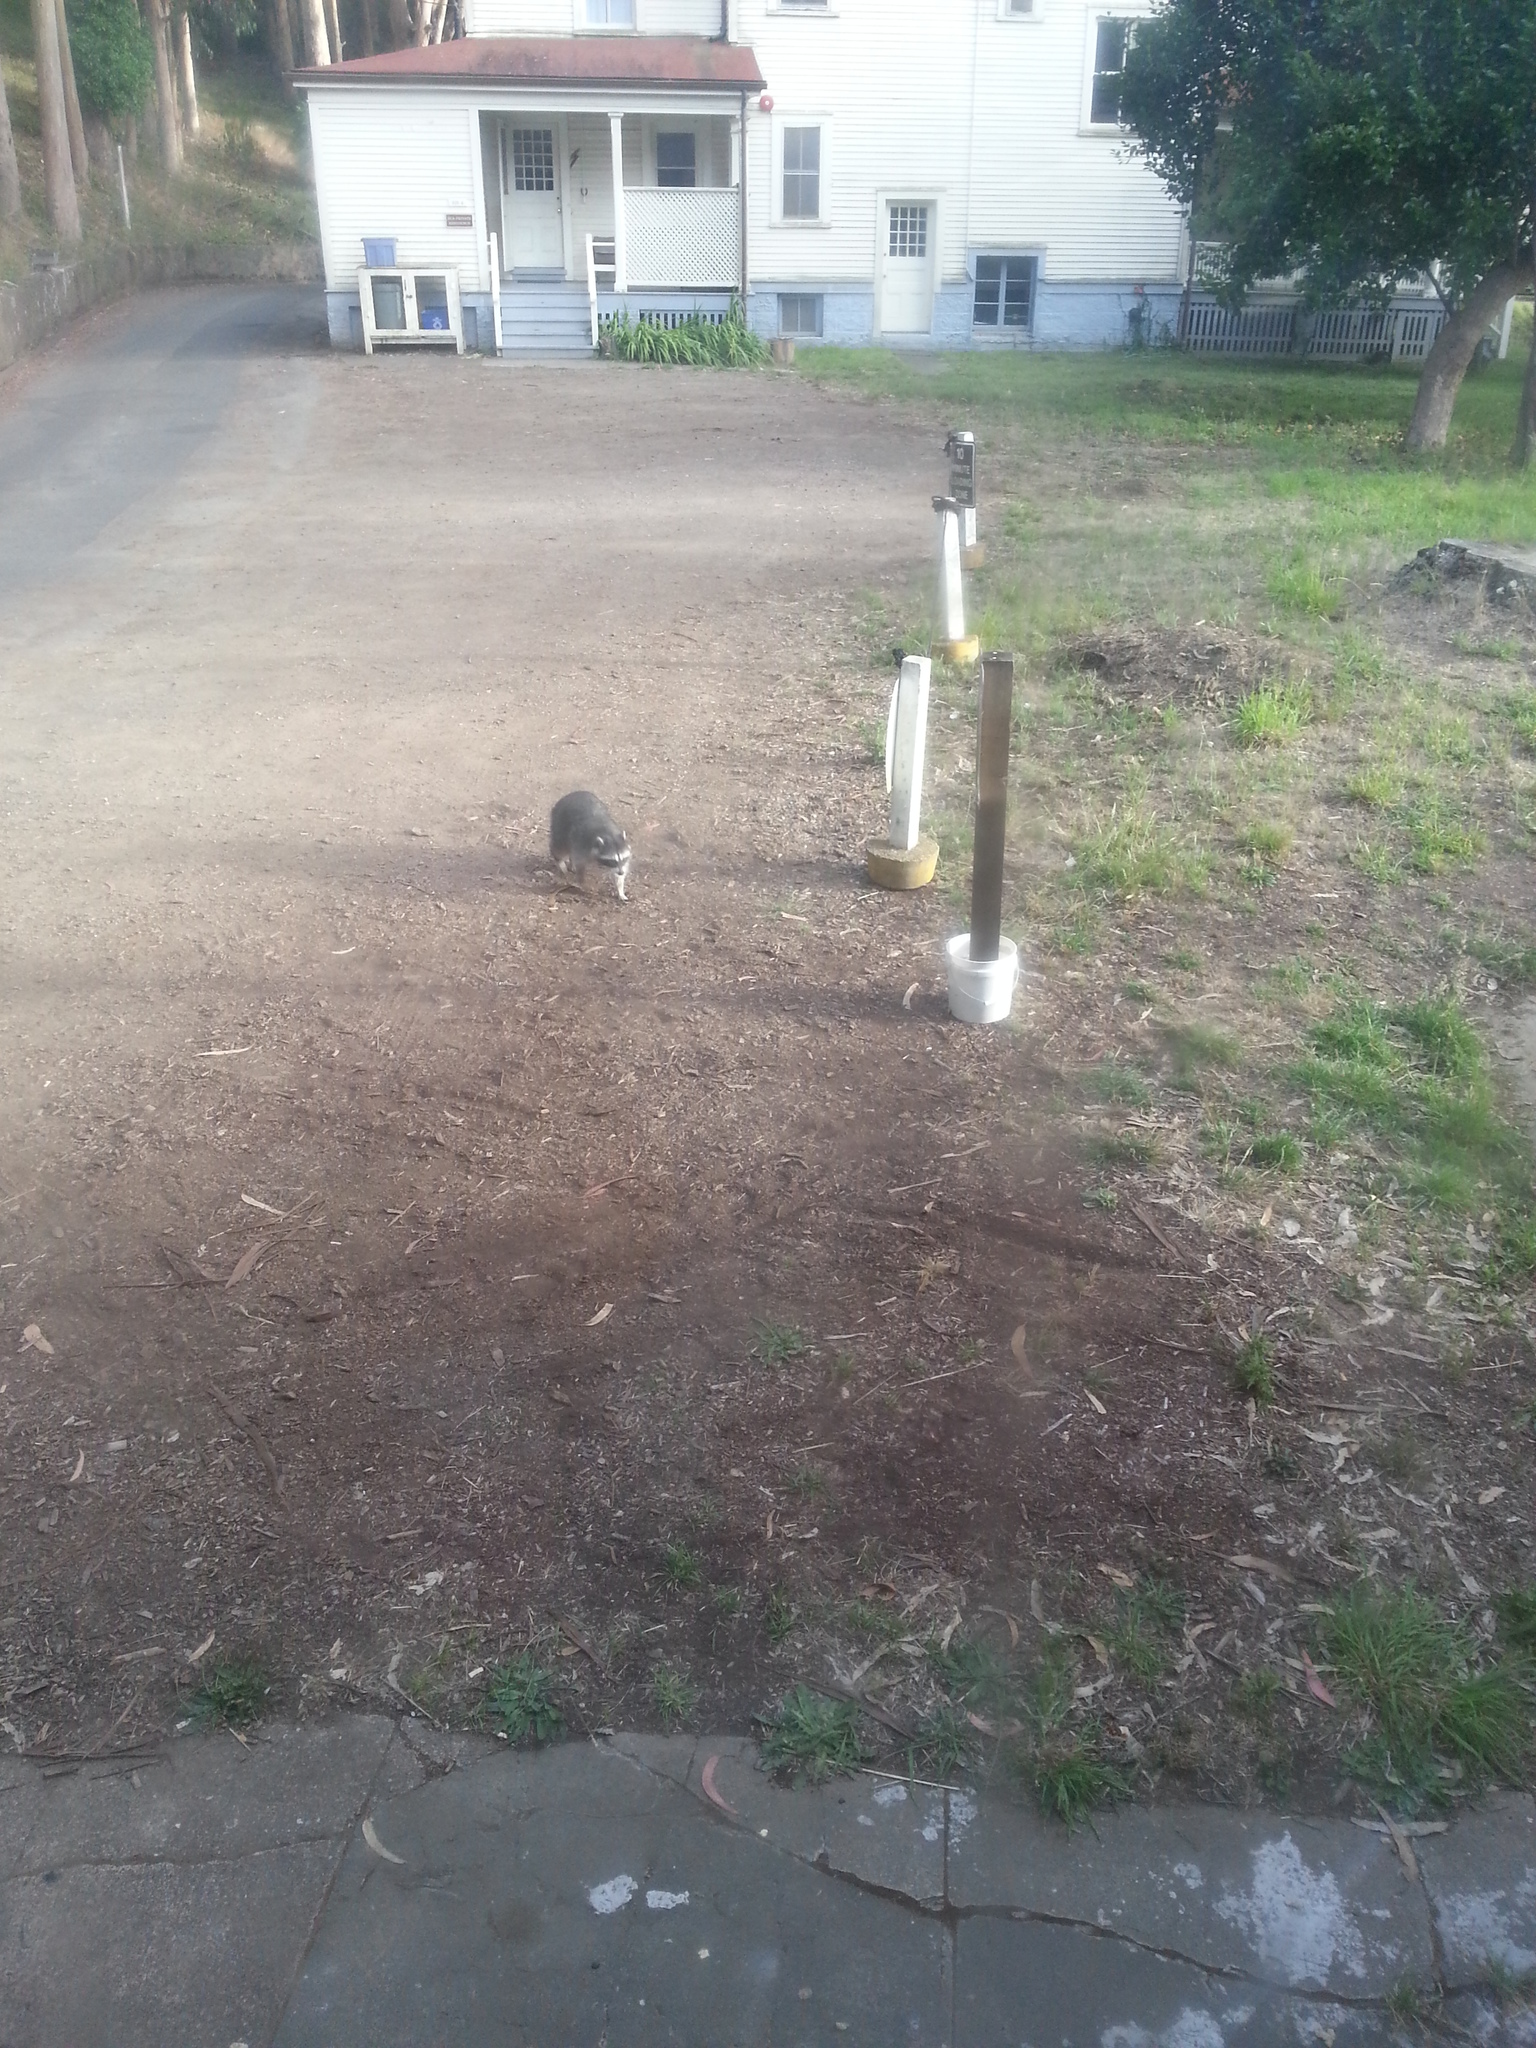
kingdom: Animalia
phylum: Chordata
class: Mammalia
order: Carnivora
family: Procyonidae
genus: Procyon
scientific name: Procyon lotor
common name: Raccoon
